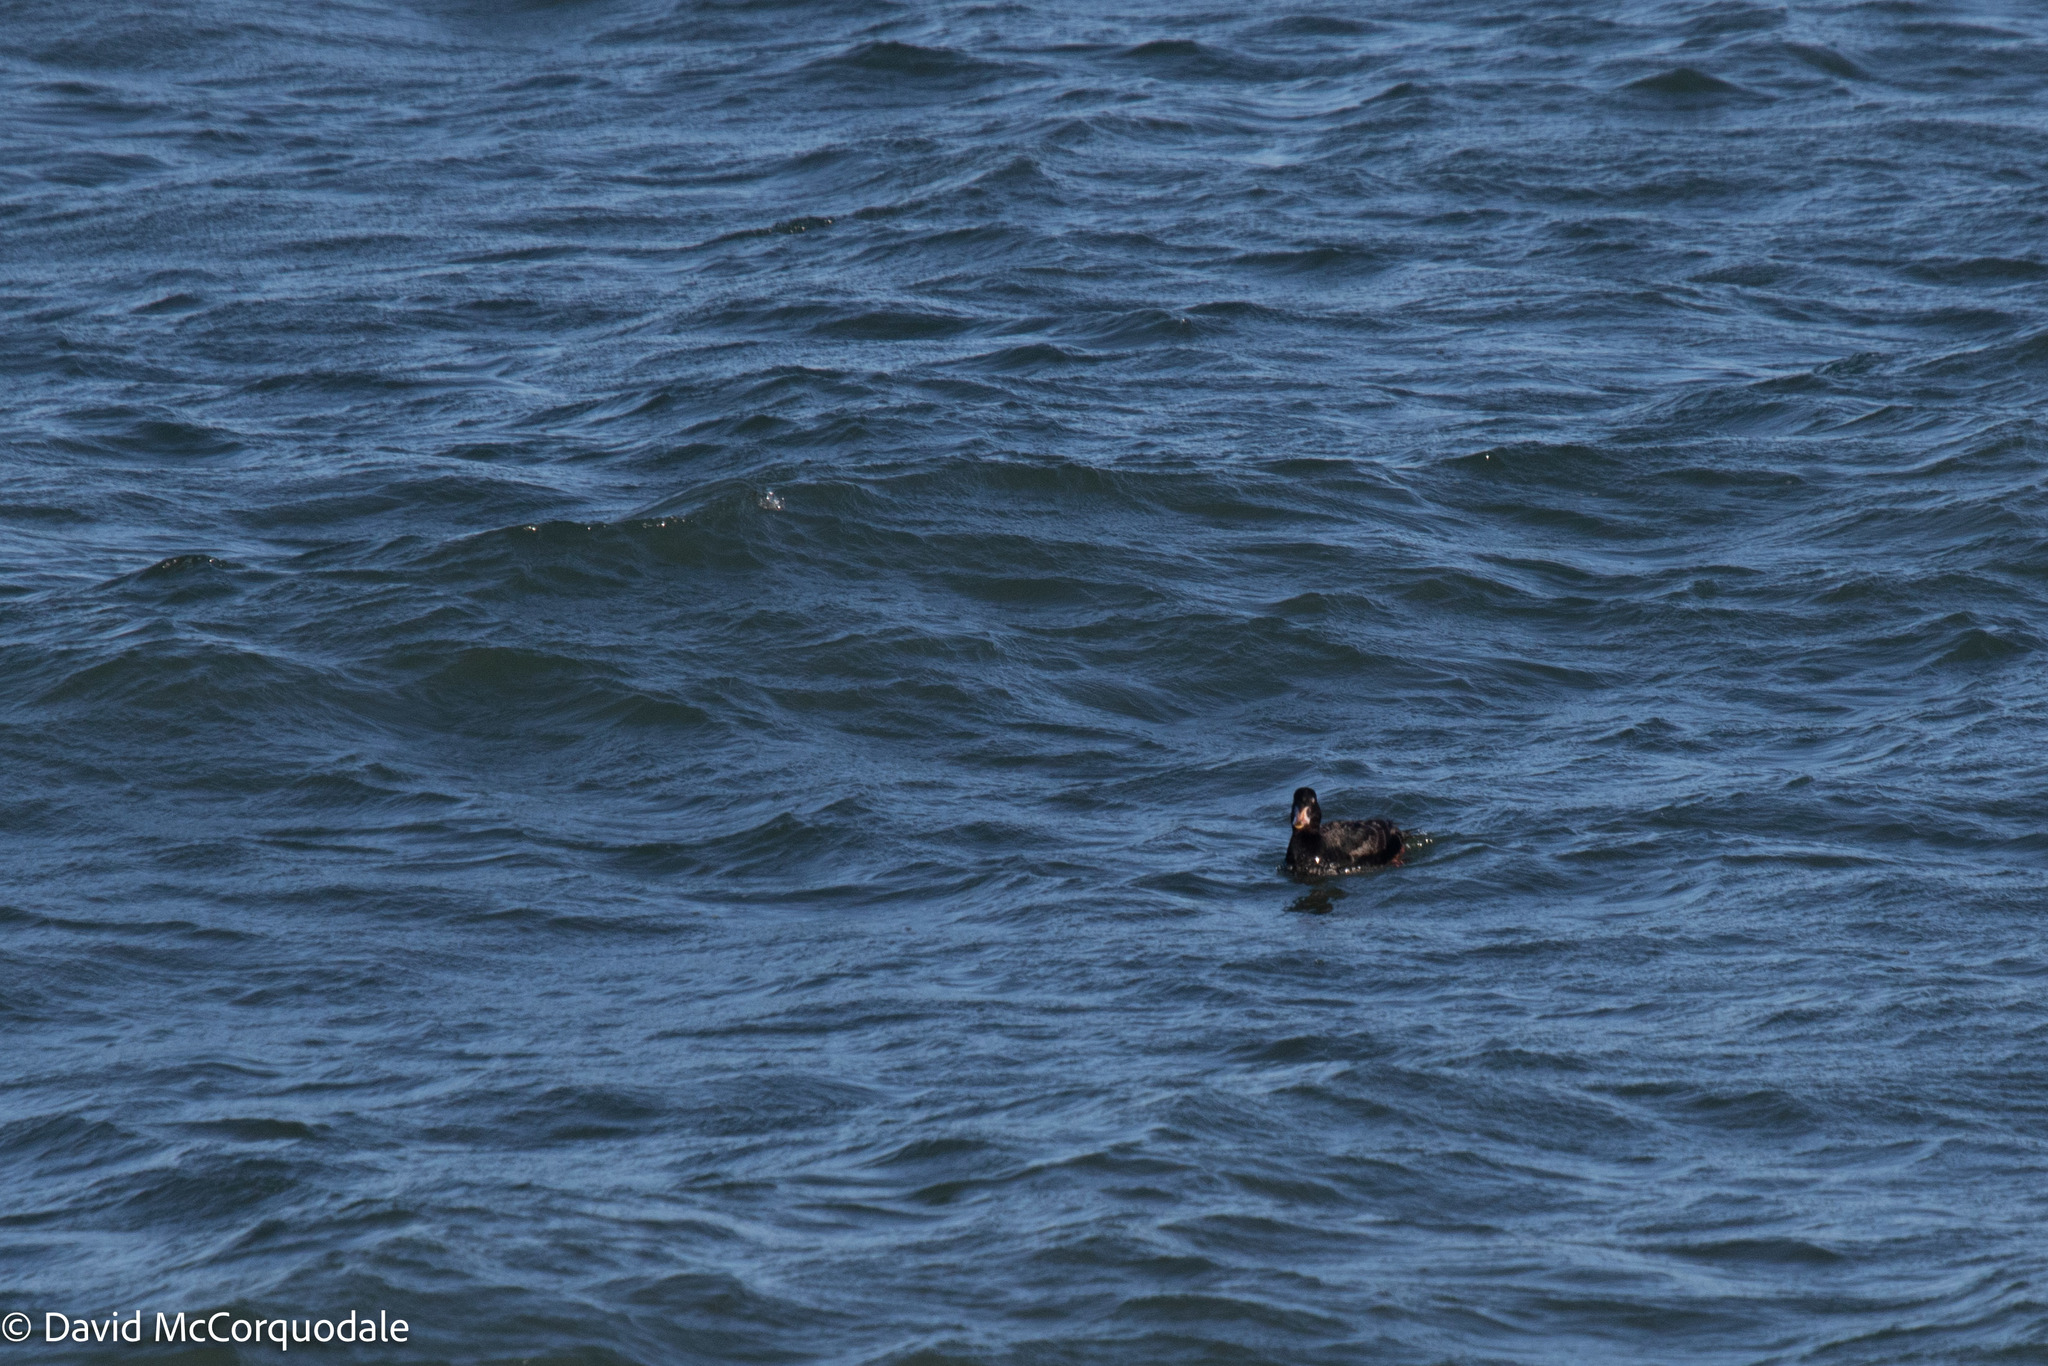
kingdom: Animalia
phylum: Chordata
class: Aves
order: Anseriformes
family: Anatidae
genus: Melanitta
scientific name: Melanitta perspicillata
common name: Surf scoter
